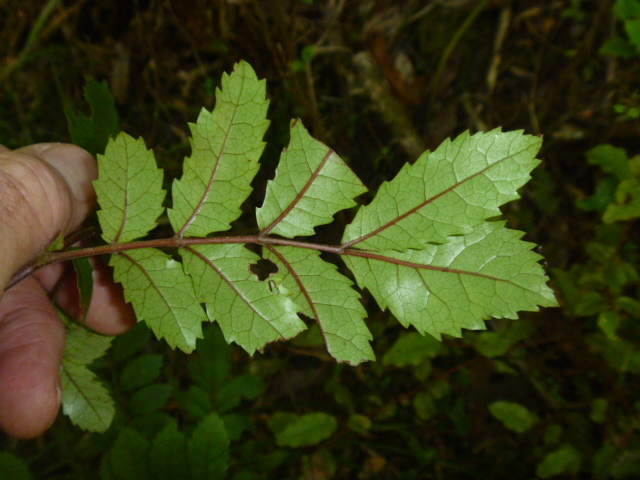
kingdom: Plantae
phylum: Tracheophyta
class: Magnoliopsida
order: Oxalidales
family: Cunoniaceae
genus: Pterophylla
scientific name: Pterophylla sylvicola
